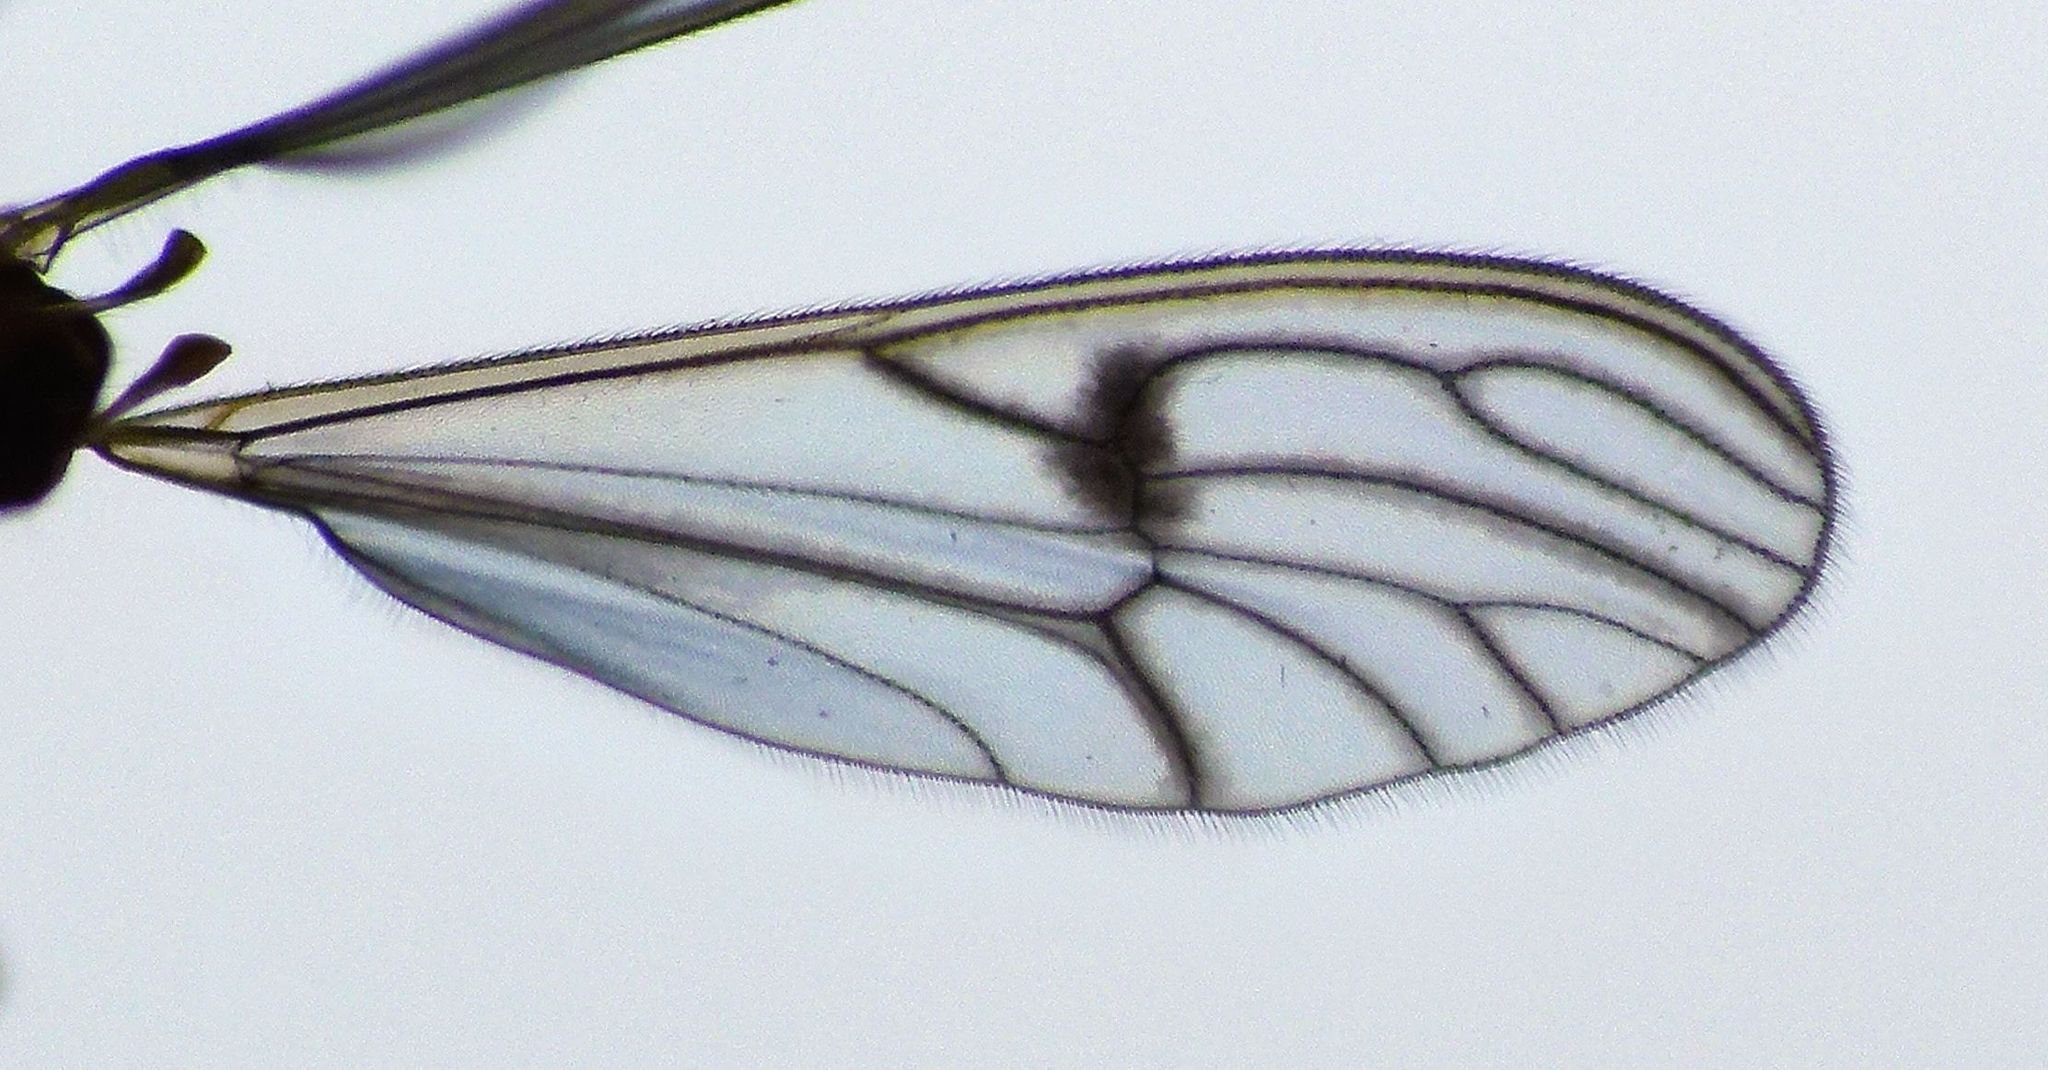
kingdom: Animalia
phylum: Arthropoda
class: Insecta
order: Diptera
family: Dixidae
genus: Dixella
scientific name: Dixella fuscinervis
